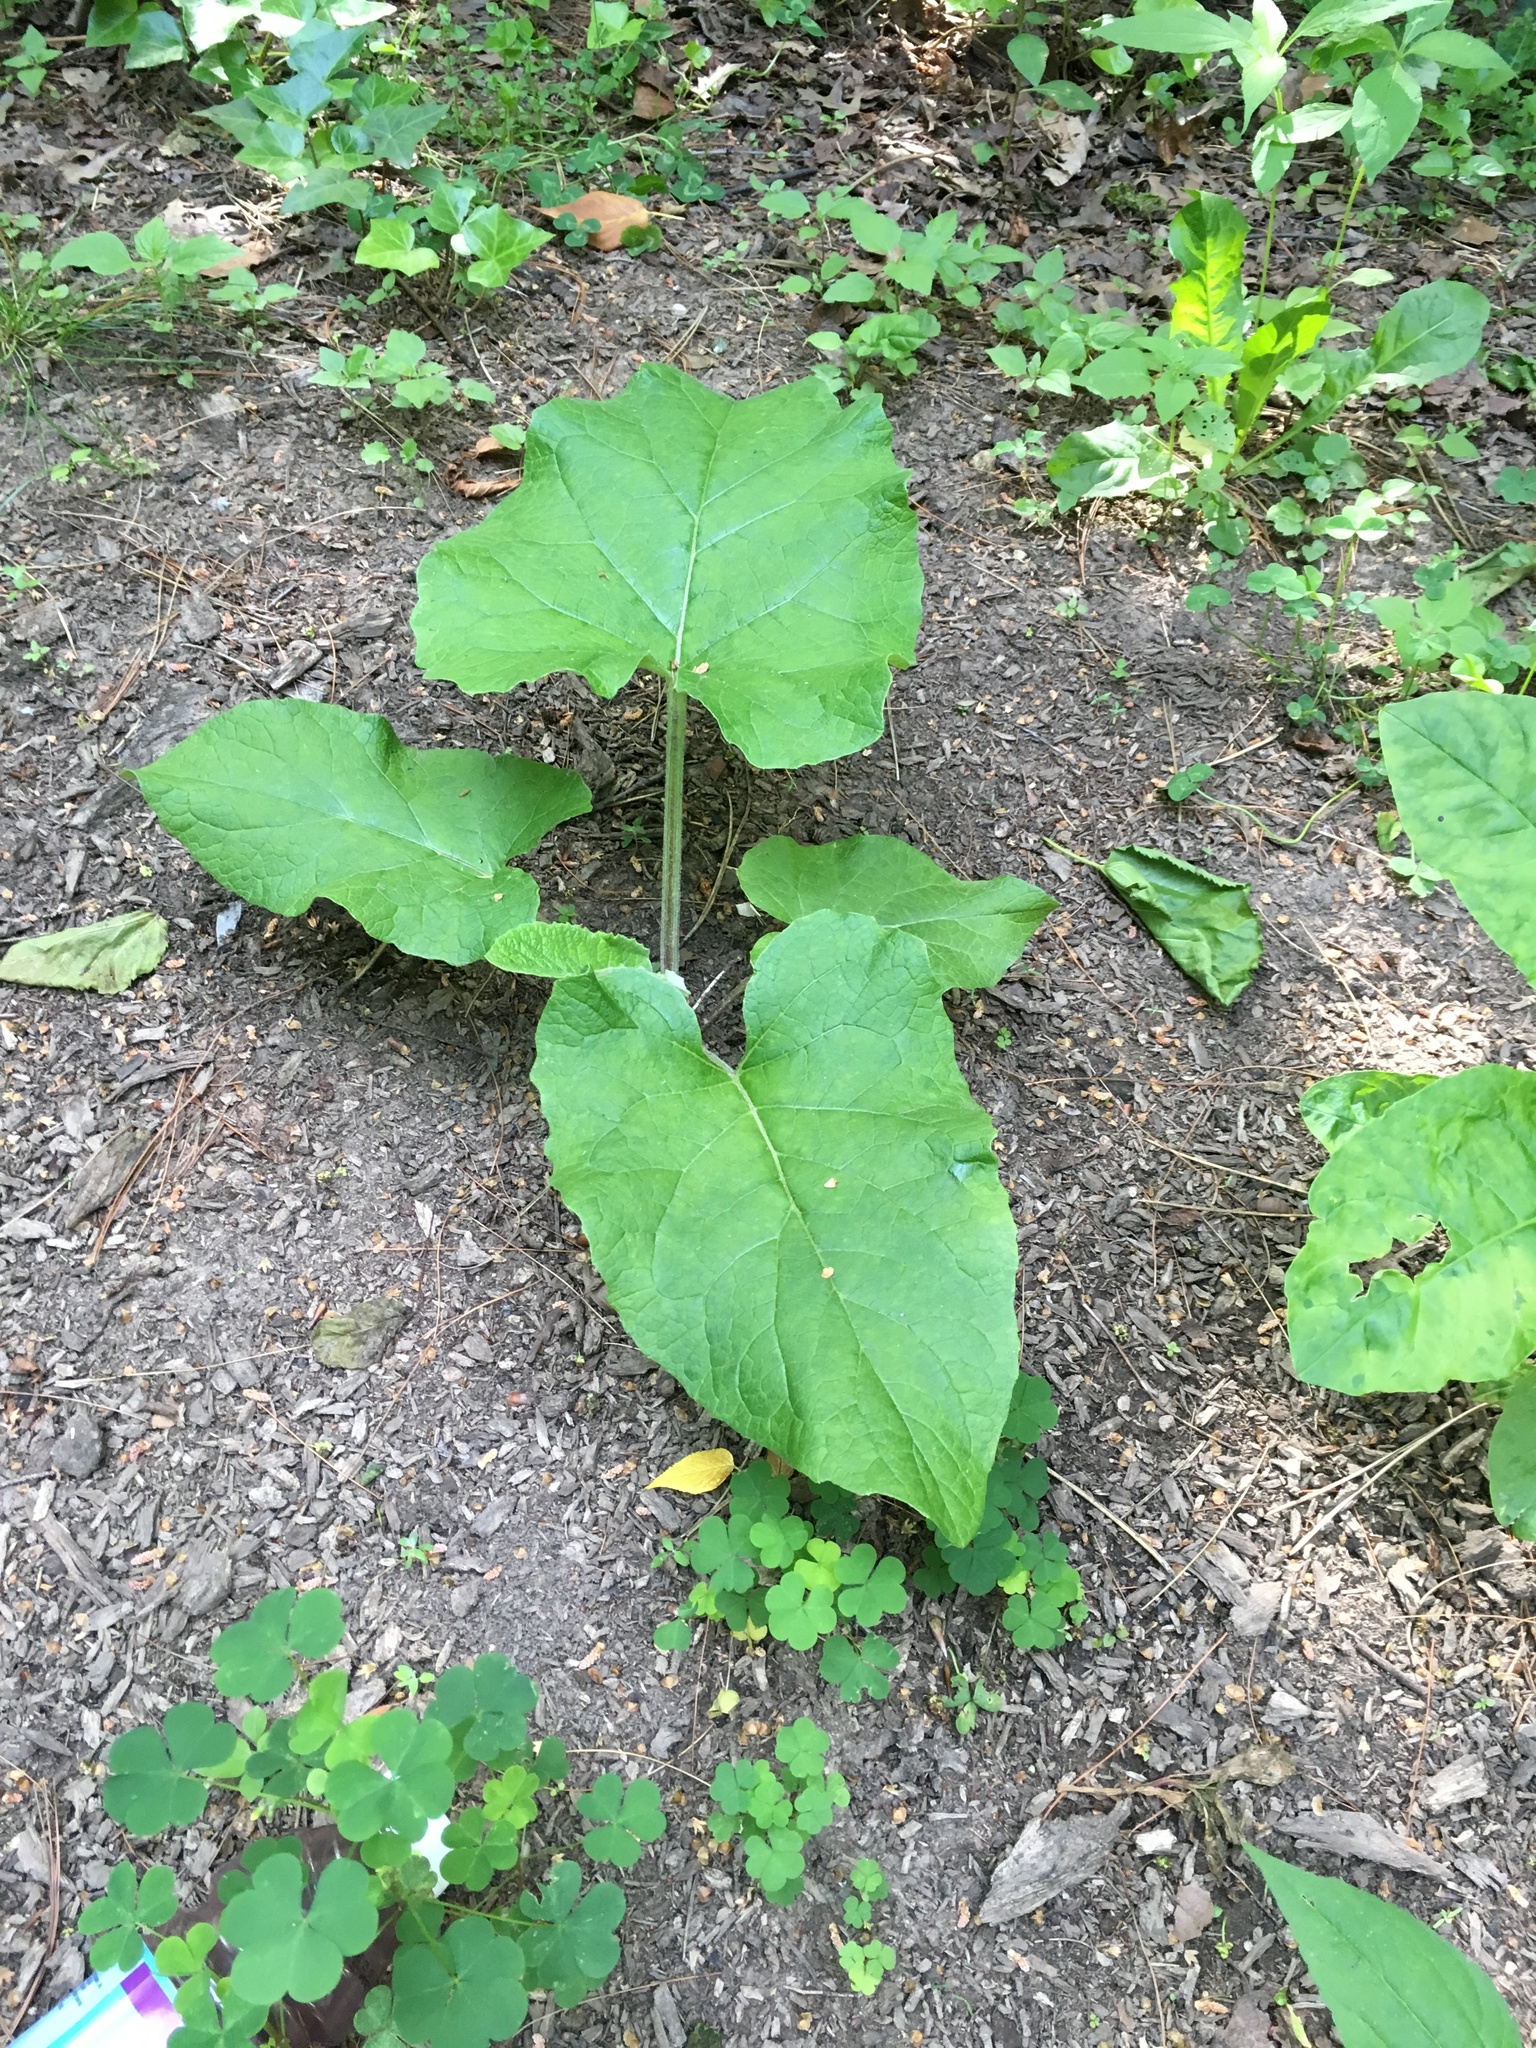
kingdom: Plantae
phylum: Tracheophyta
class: Magnoliopsida
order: Asterales
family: Asteraceae
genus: Arctium
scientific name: Arctium minus
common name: Lesser burdock
